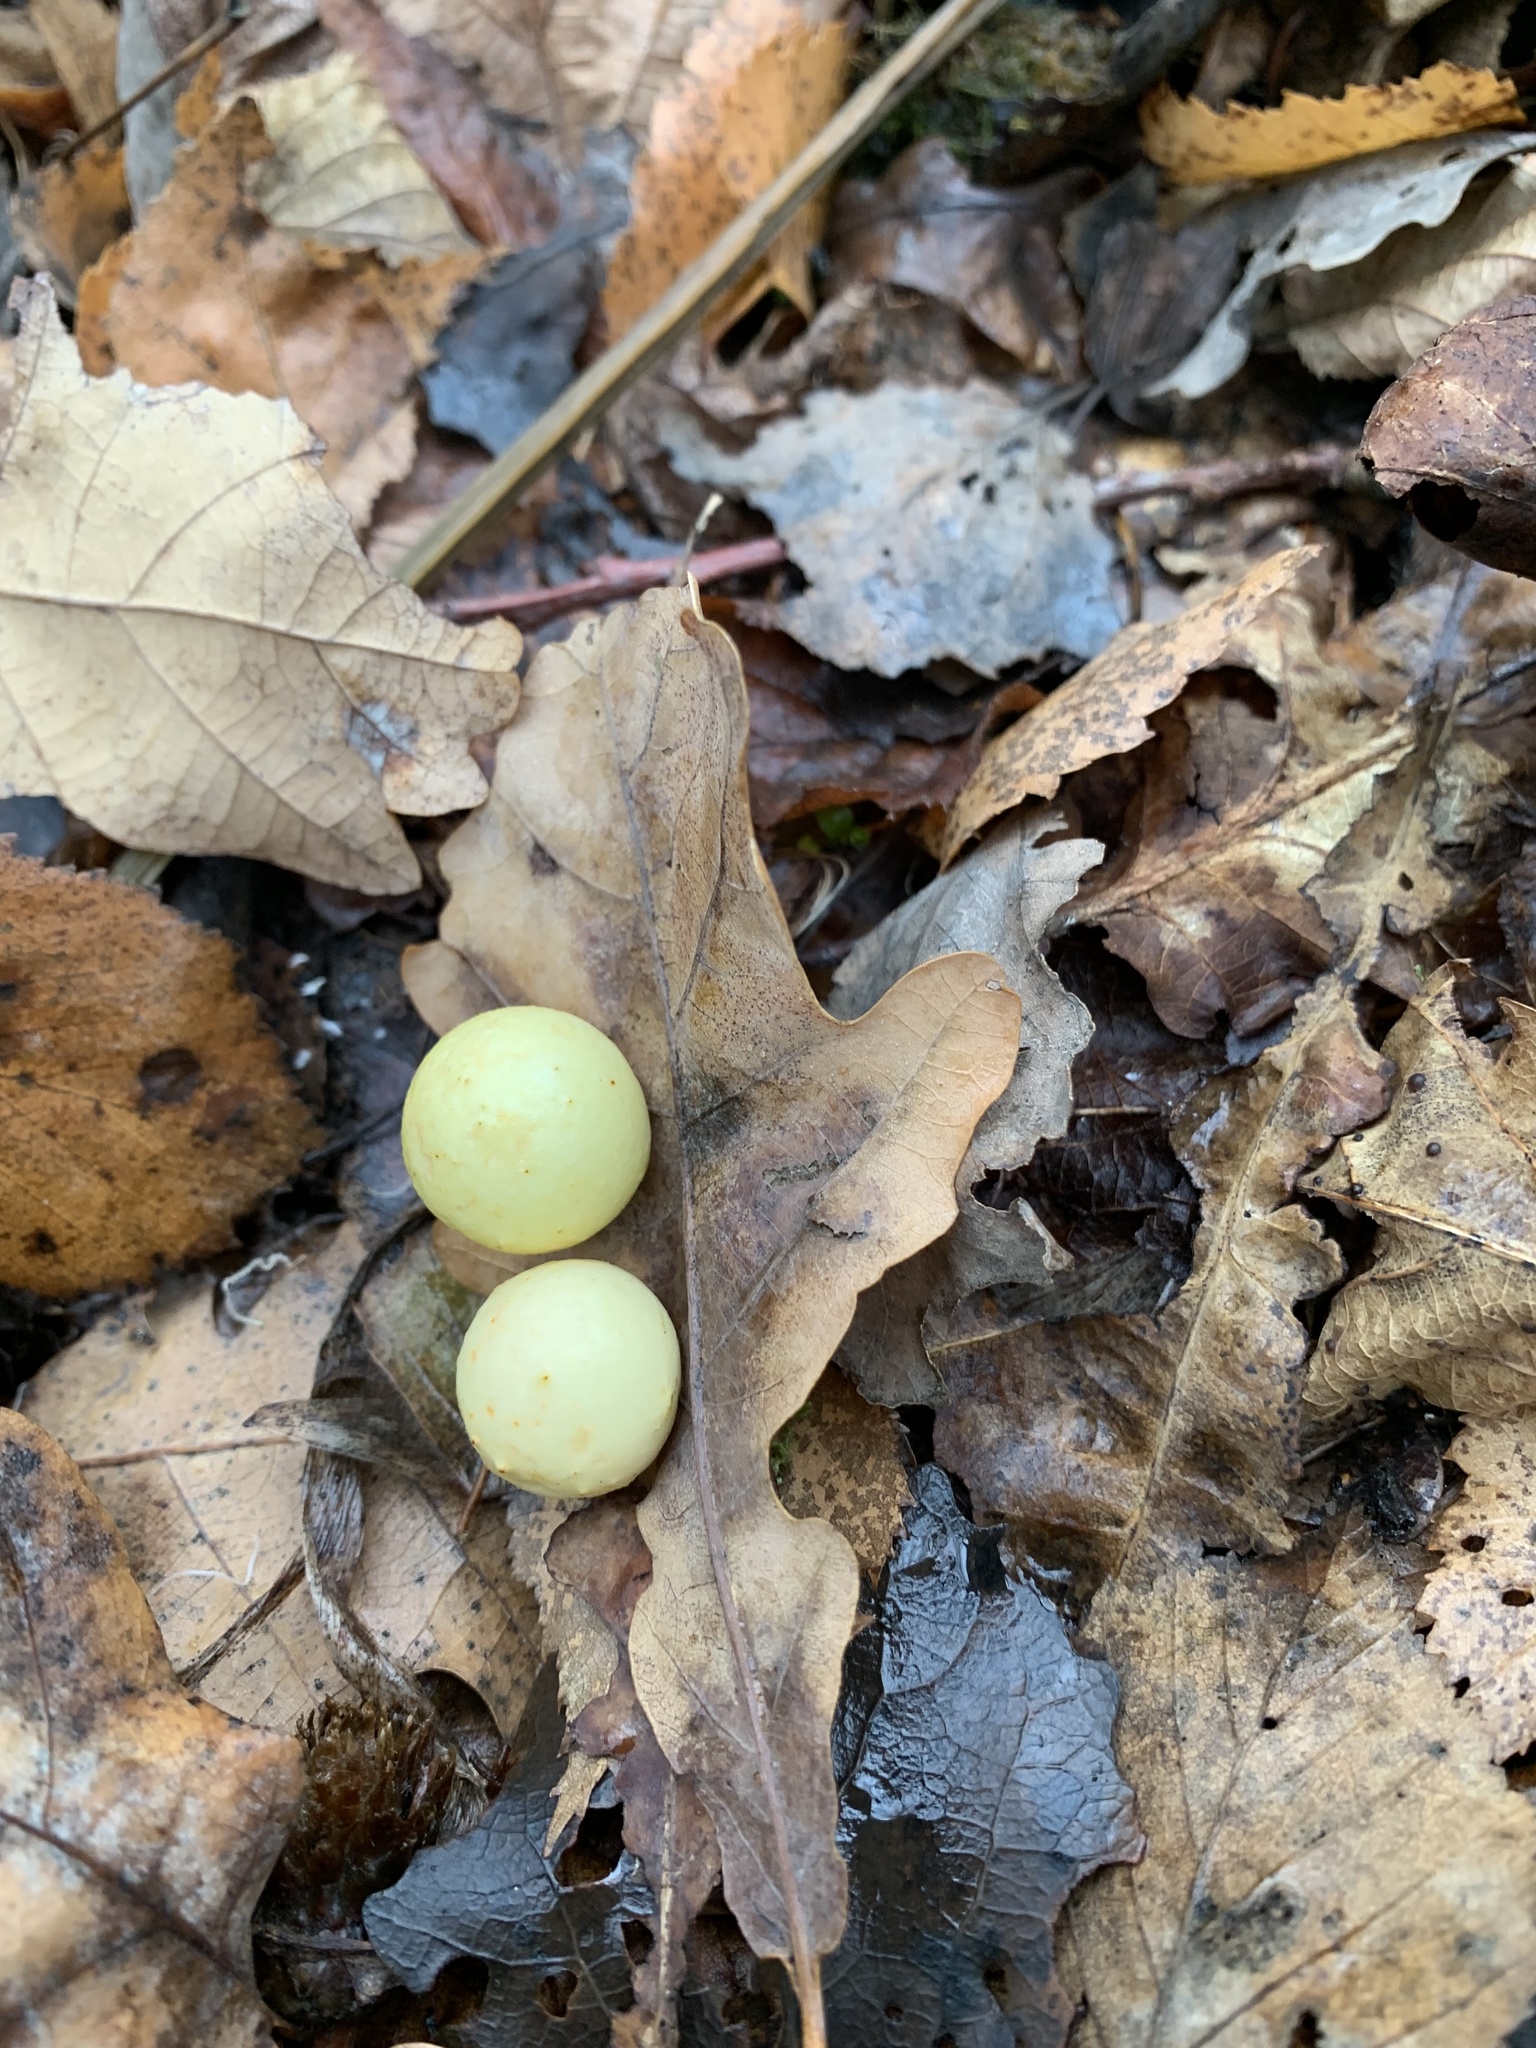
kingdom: Animalia
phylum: Arthropoda
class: Insecta
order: Hymenoptera
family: Cynipidae
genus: Cynips
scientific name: Cynips quercusfolii
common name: Cherry gall
